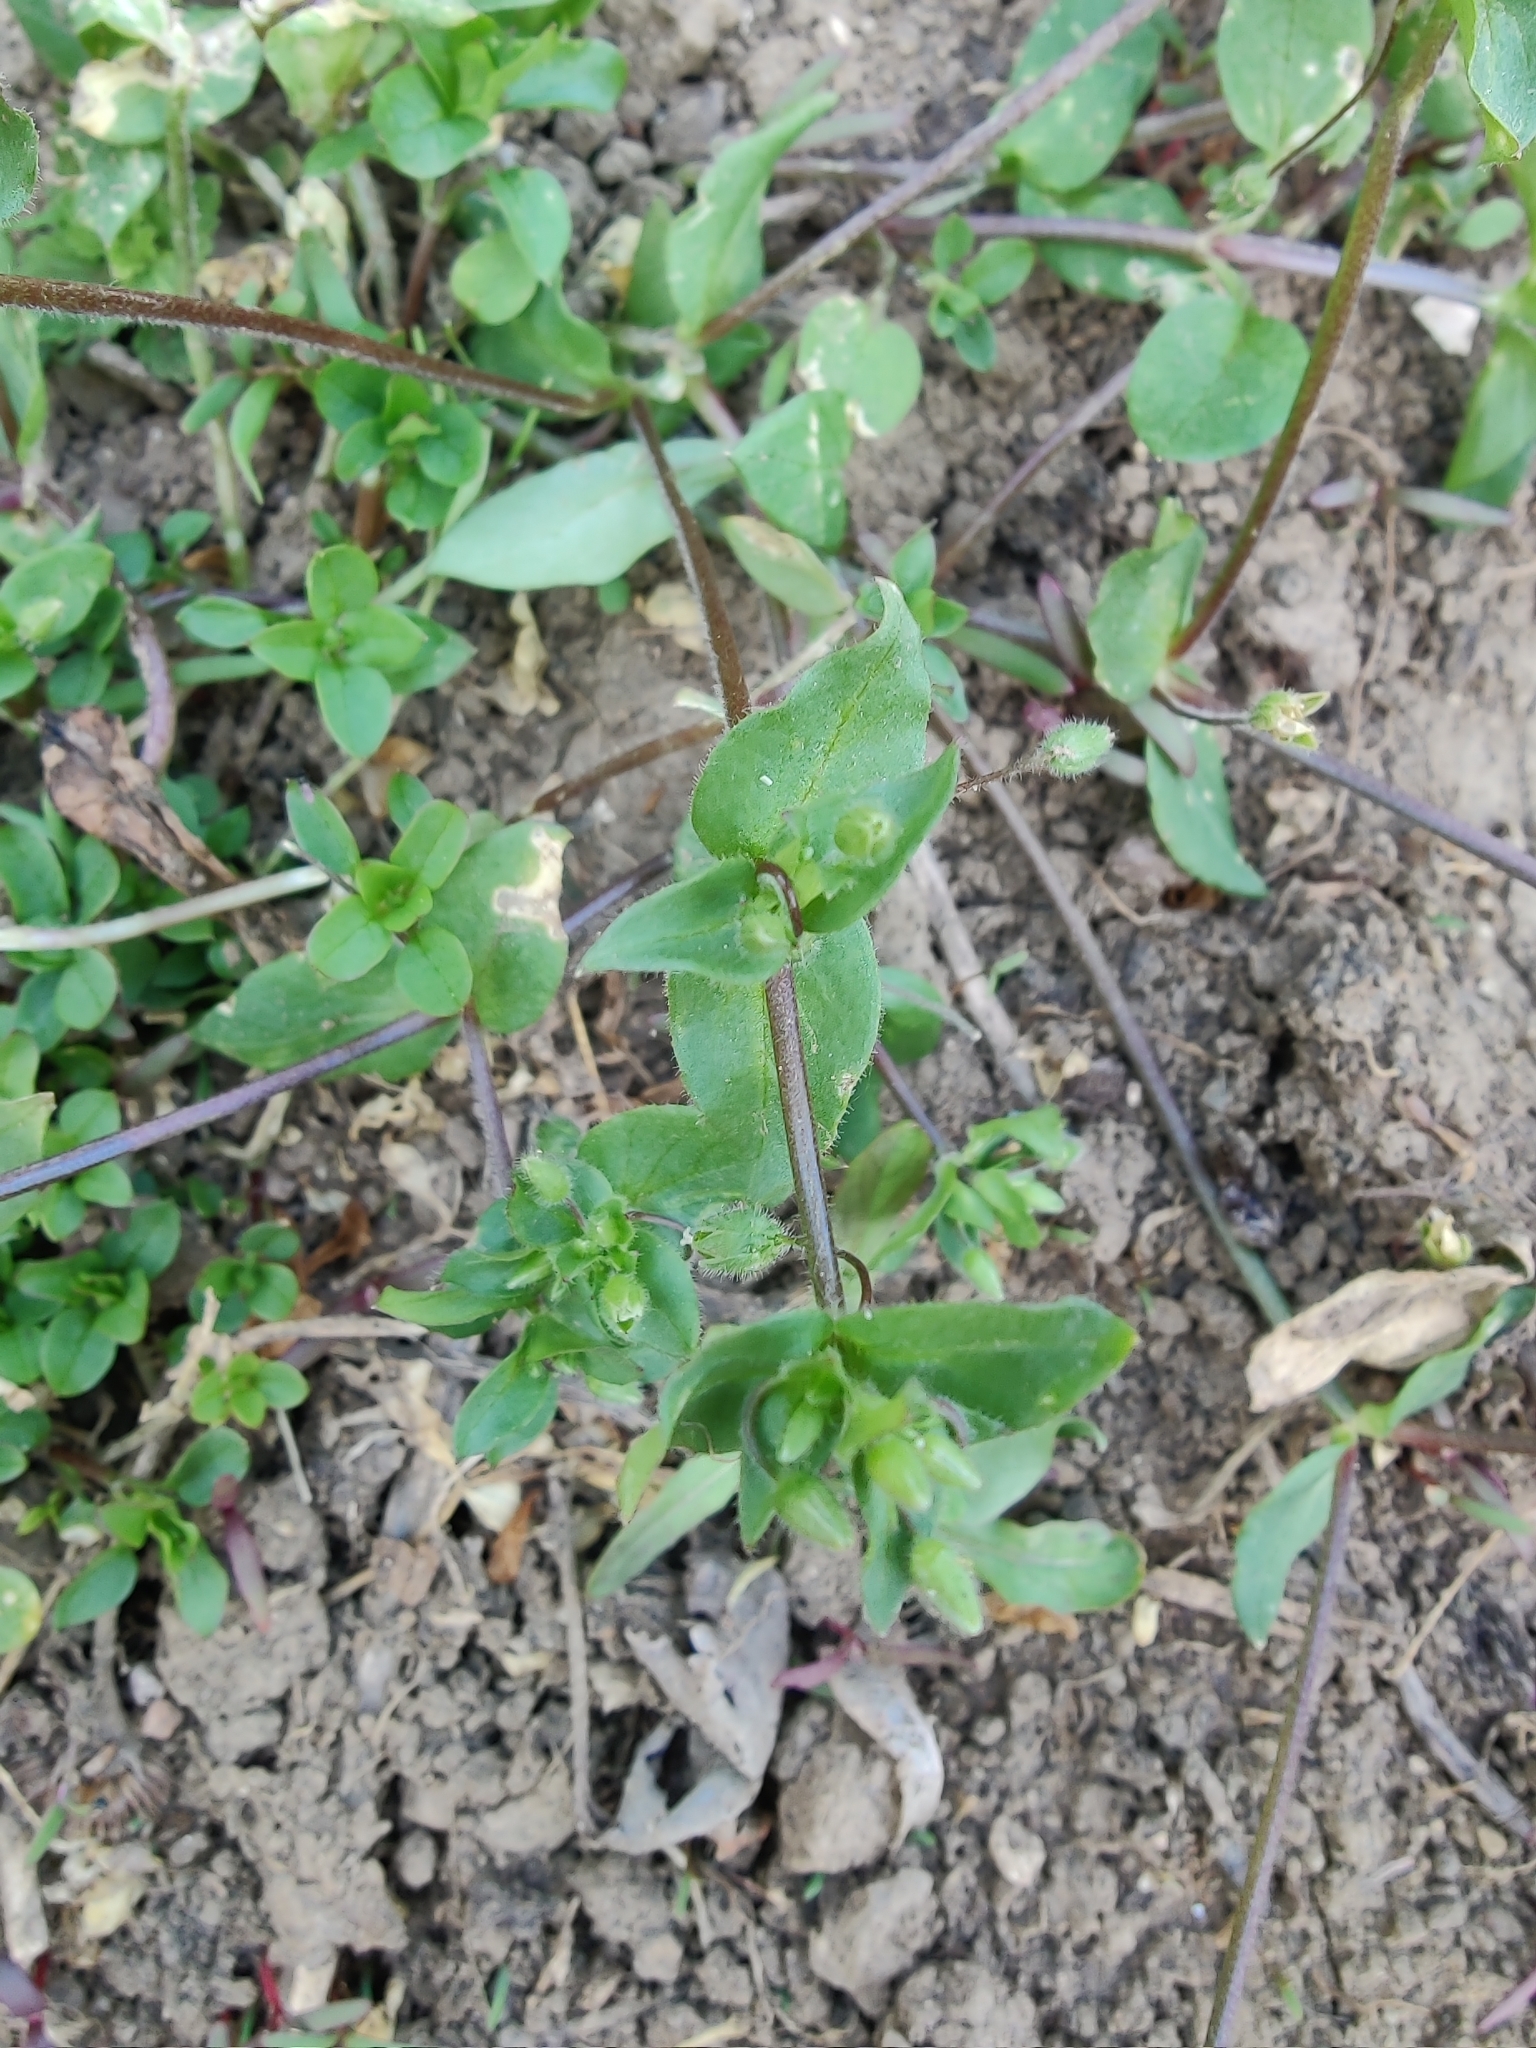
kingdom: Plantae
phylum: Tracheophyta
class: Magnoliopsida
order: Caryophyllales
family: Caryophyllaceae
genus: Stellaria
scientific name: Stellaria media
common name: Common chickweed
